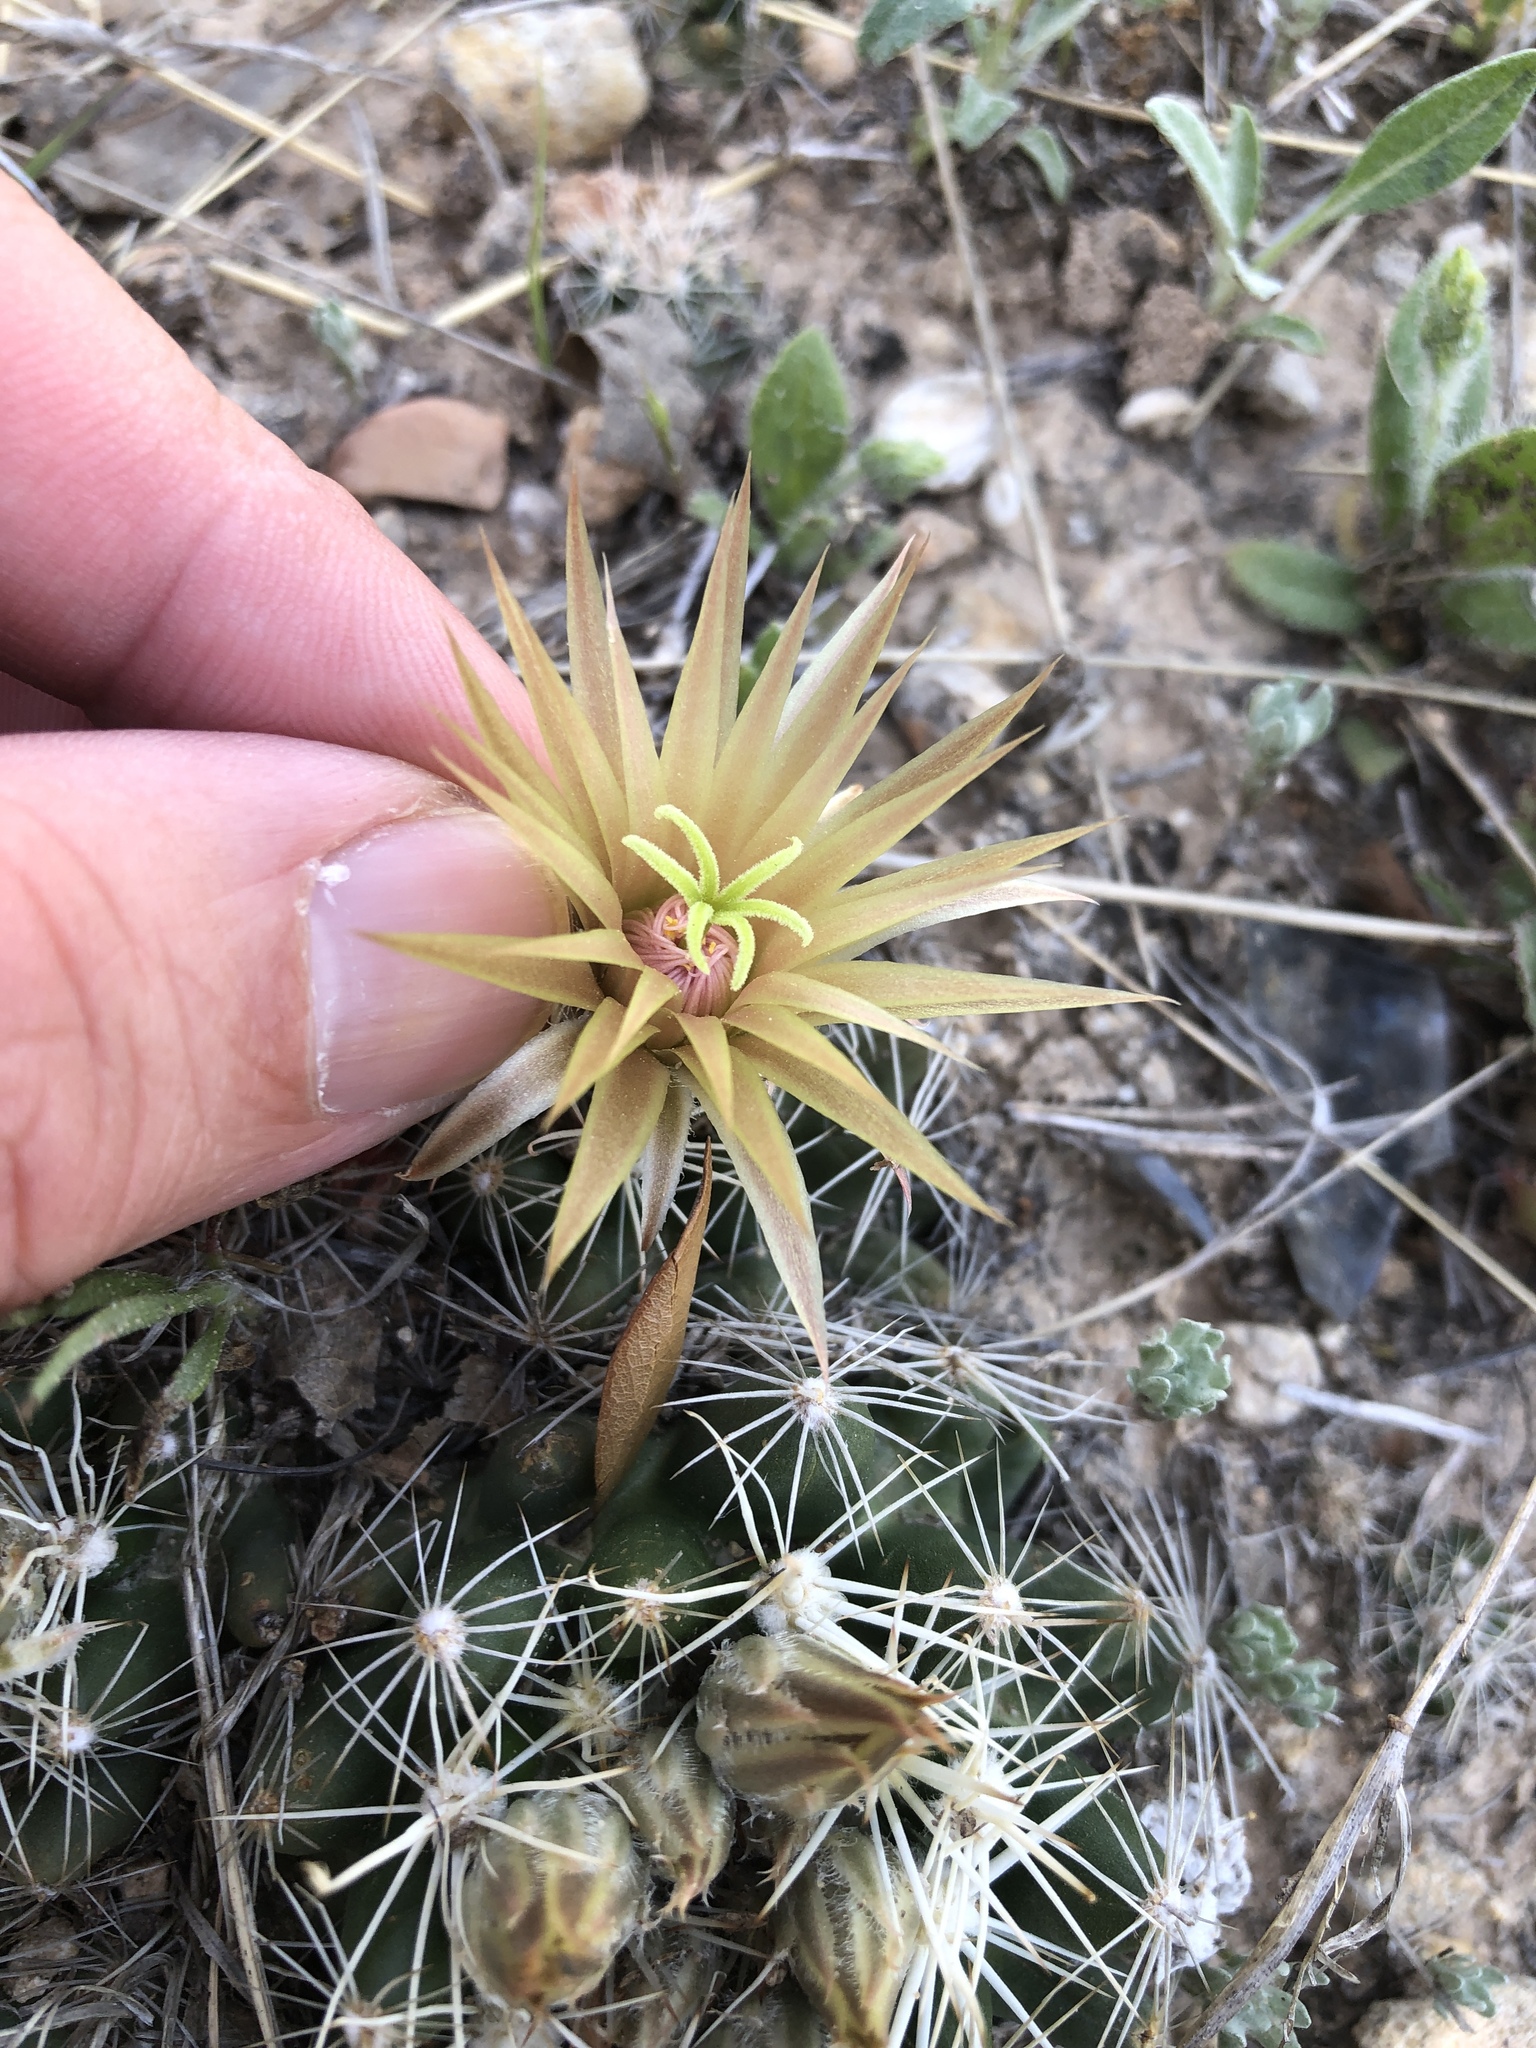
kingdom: Plantae
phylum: Tracheophyta
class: Magnoliopsida
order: Caryophyllales
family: Cactaceae
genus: Pelecyphora
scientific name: Pelecyphora missouriensis
